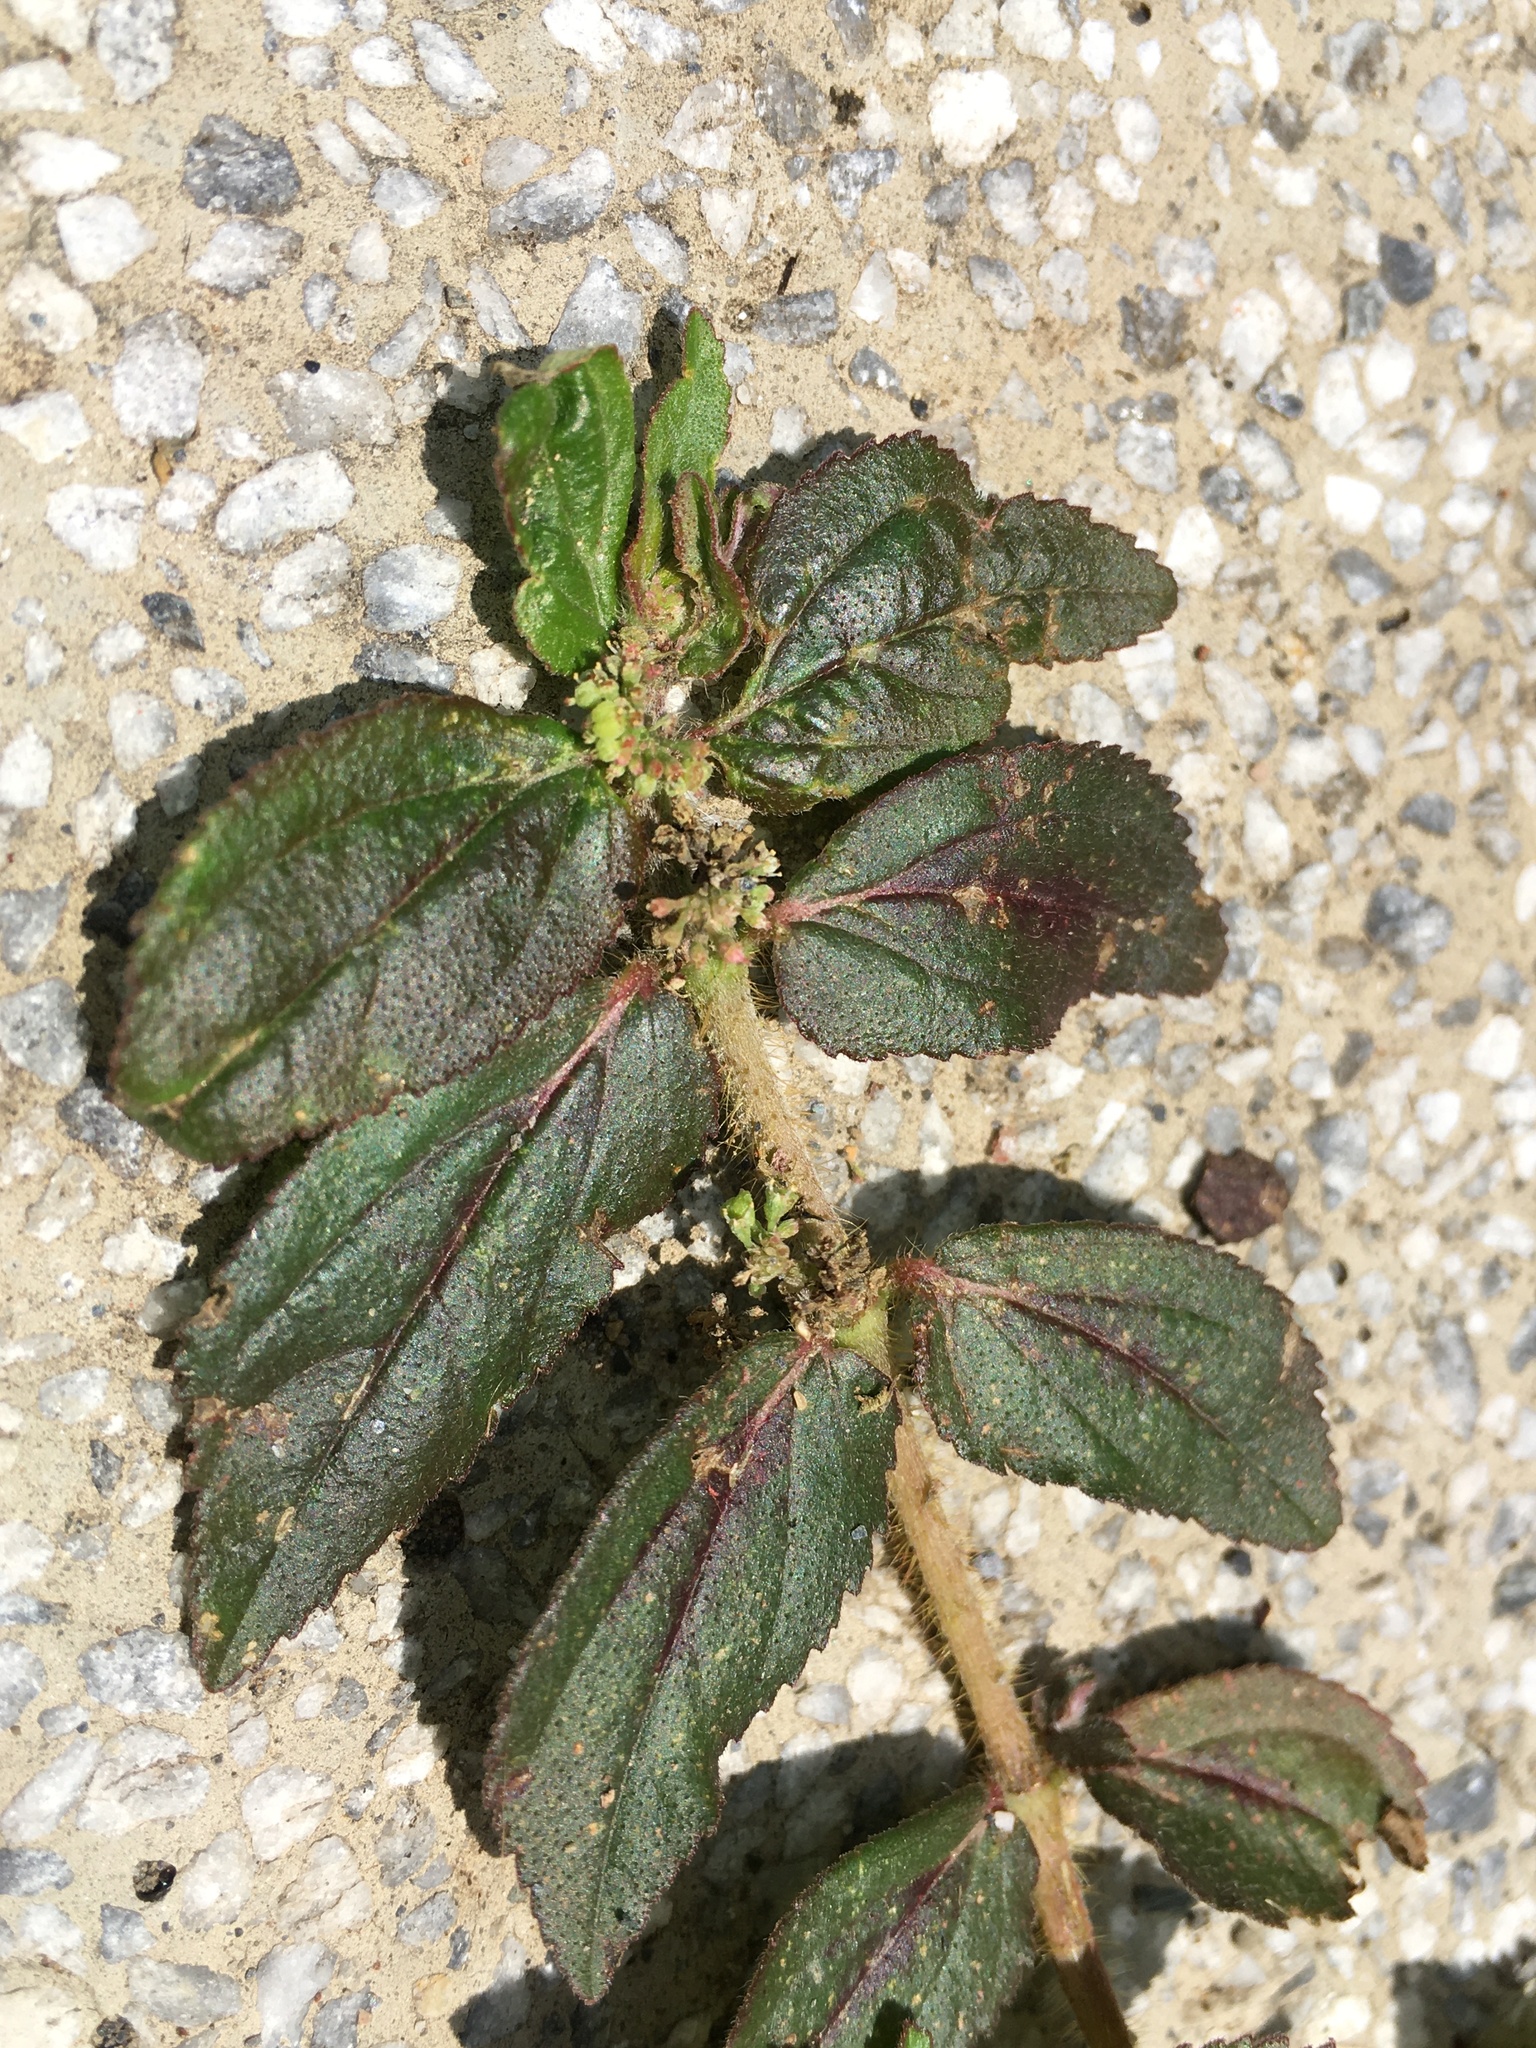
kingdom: Plantae
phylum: Tracheophyta
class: Magnoliopsida
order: Malpighiales
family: Euphorbiaceae
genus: Euphorbia
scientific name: Euphorbia hirta
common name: Pillpod sandmat
